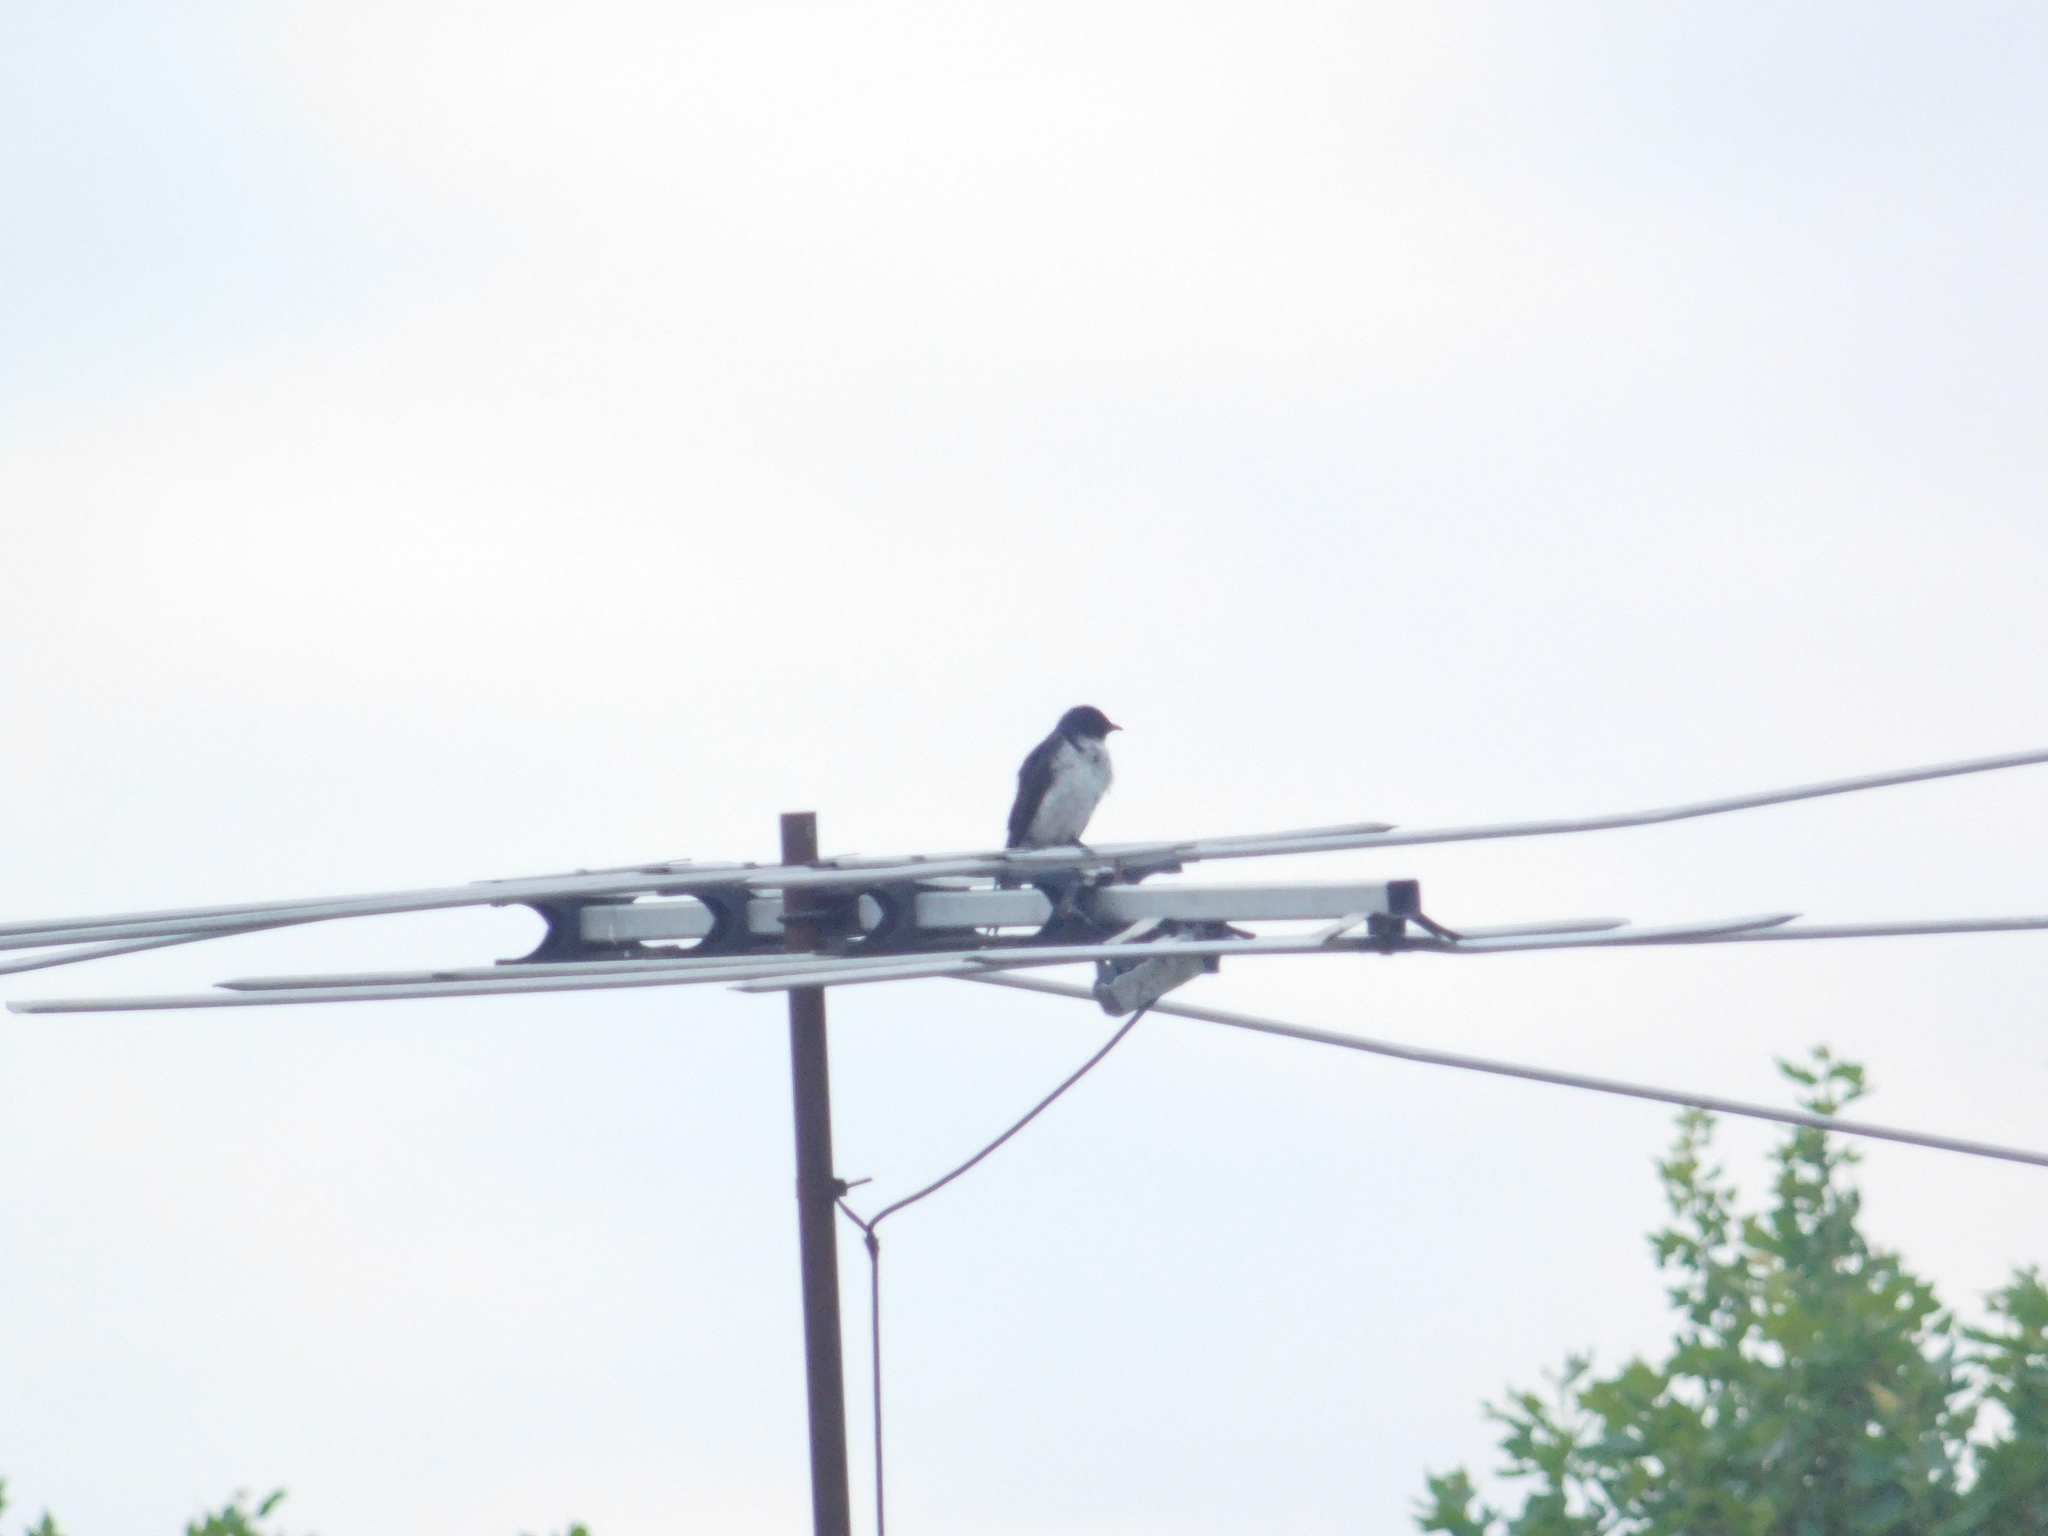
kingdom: Animalia
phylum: Chordata
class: Aves
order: Passeriformes
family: Hirundinidae
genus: Progne
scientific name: Progne chalybea
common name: Grey-breasted martin
